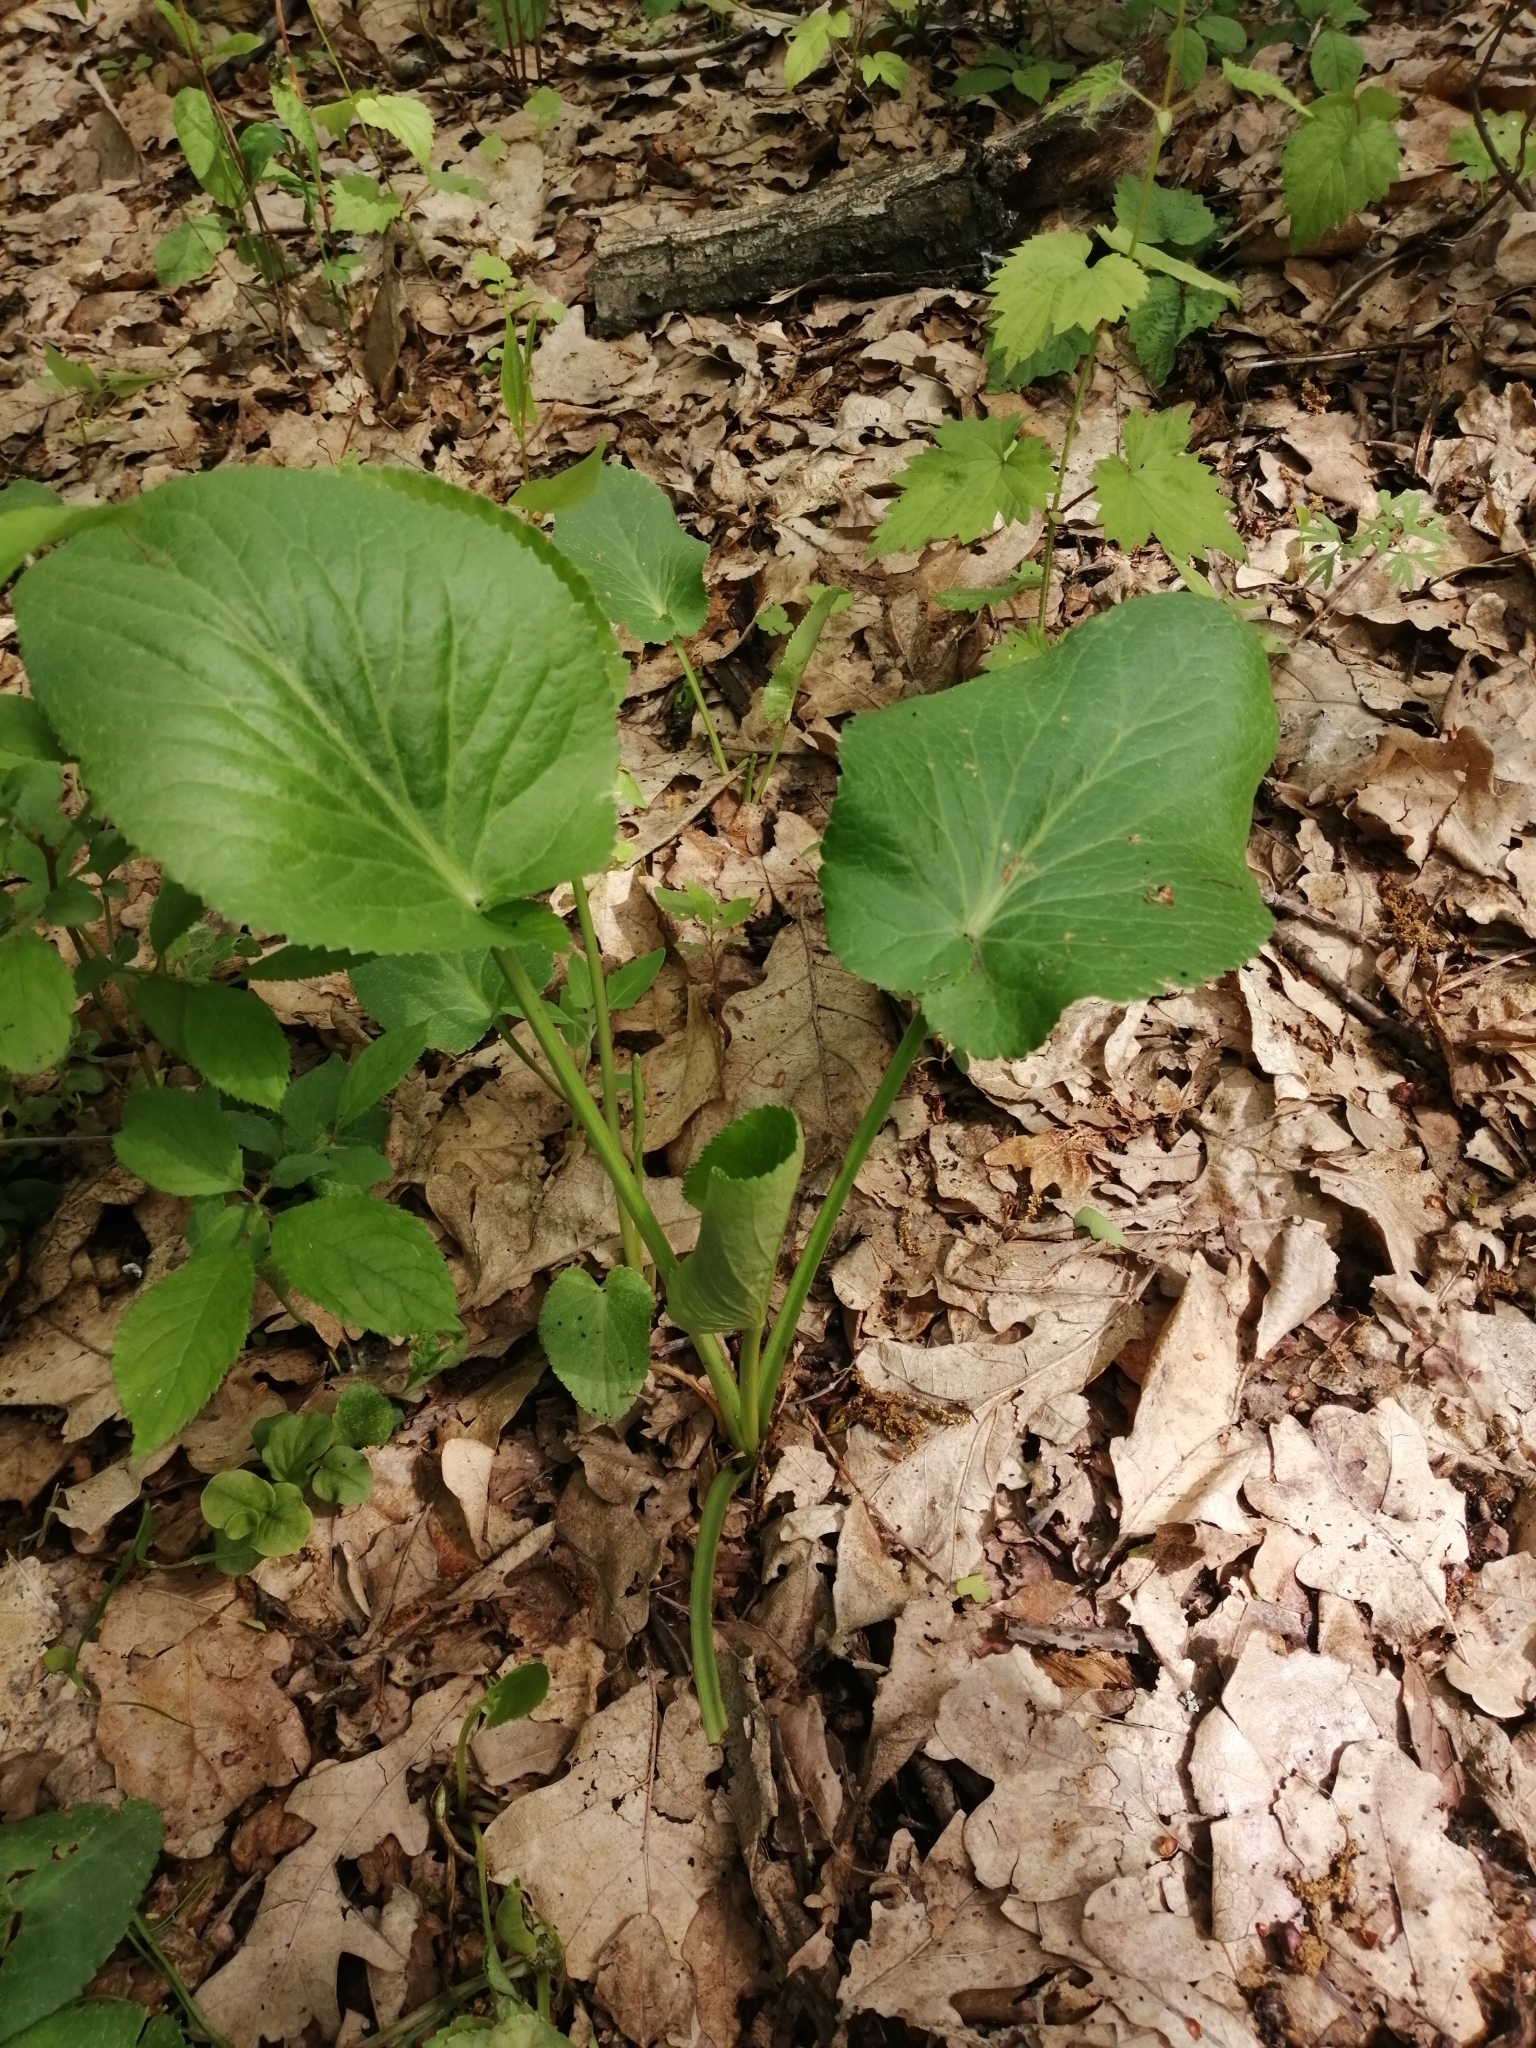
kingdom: Plantae
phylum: Tracheophyta
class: Magnoliopsida
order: Apiales
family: Apiaceae
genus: Eryngium
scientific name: Eryngium planum
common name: Blue eryngo
